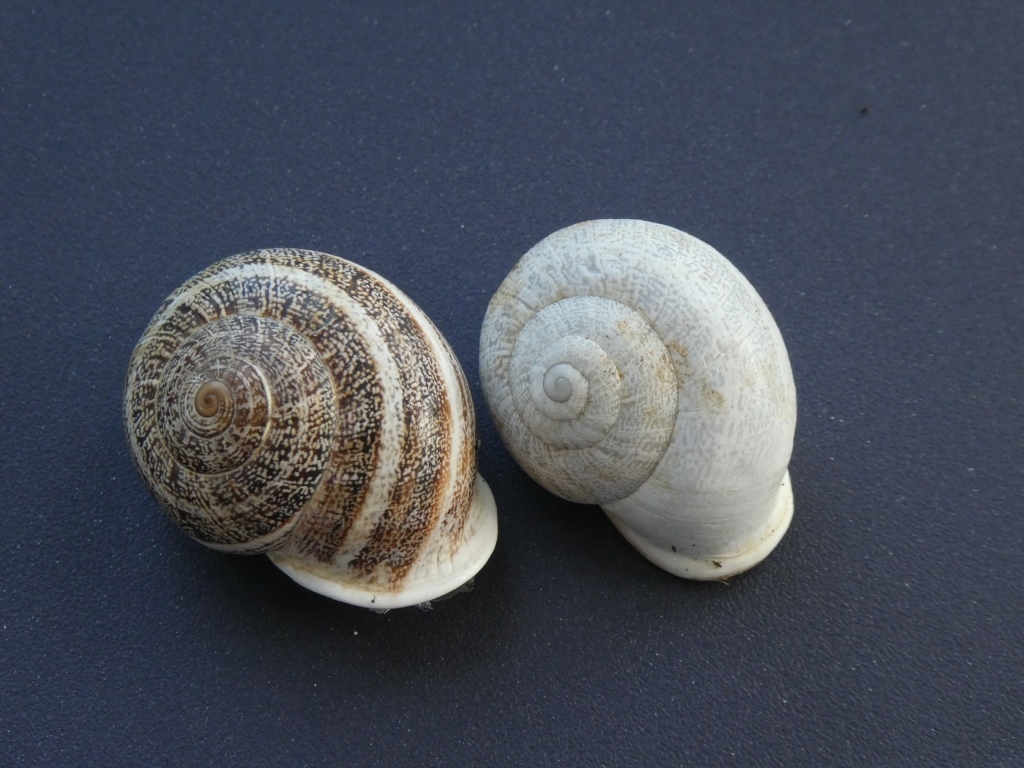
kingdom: Animalia
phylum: Mollusca
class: Gastropoda
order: Stylommatophora
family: Helicidae
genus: Otala
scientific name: Otala lactea
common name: Milk snail
